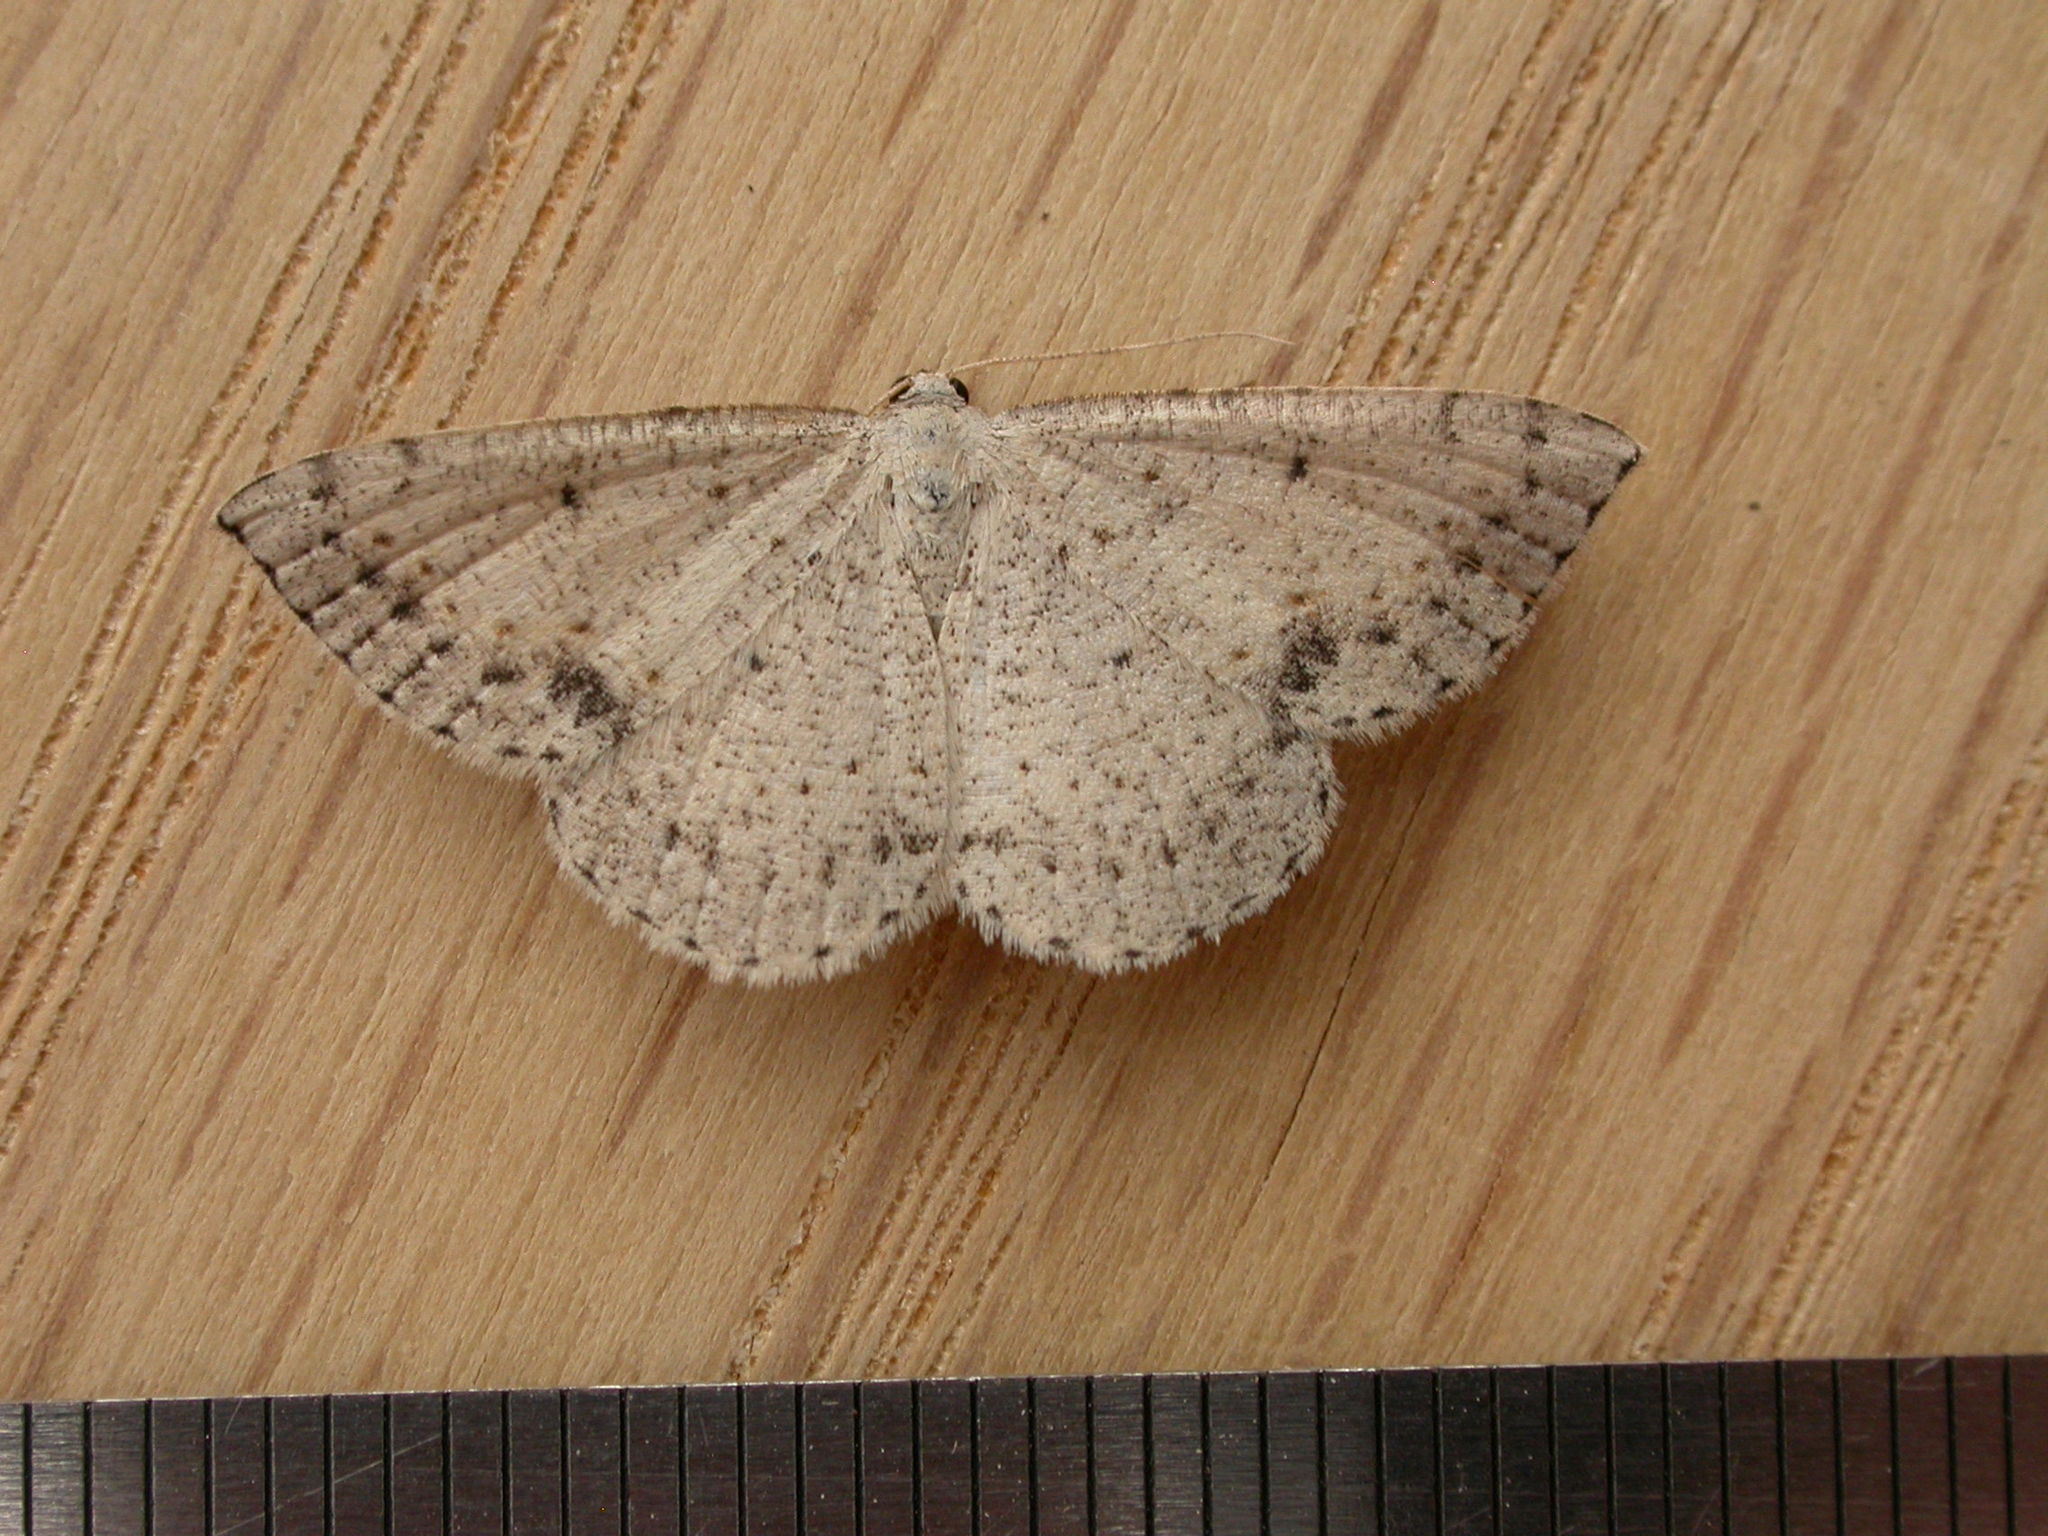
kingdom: Animalia
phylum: Arthropoda
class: Insecta
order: Lepidoptera
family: Geometridae
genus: Taxeotis
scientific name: Taxeotis intextata
